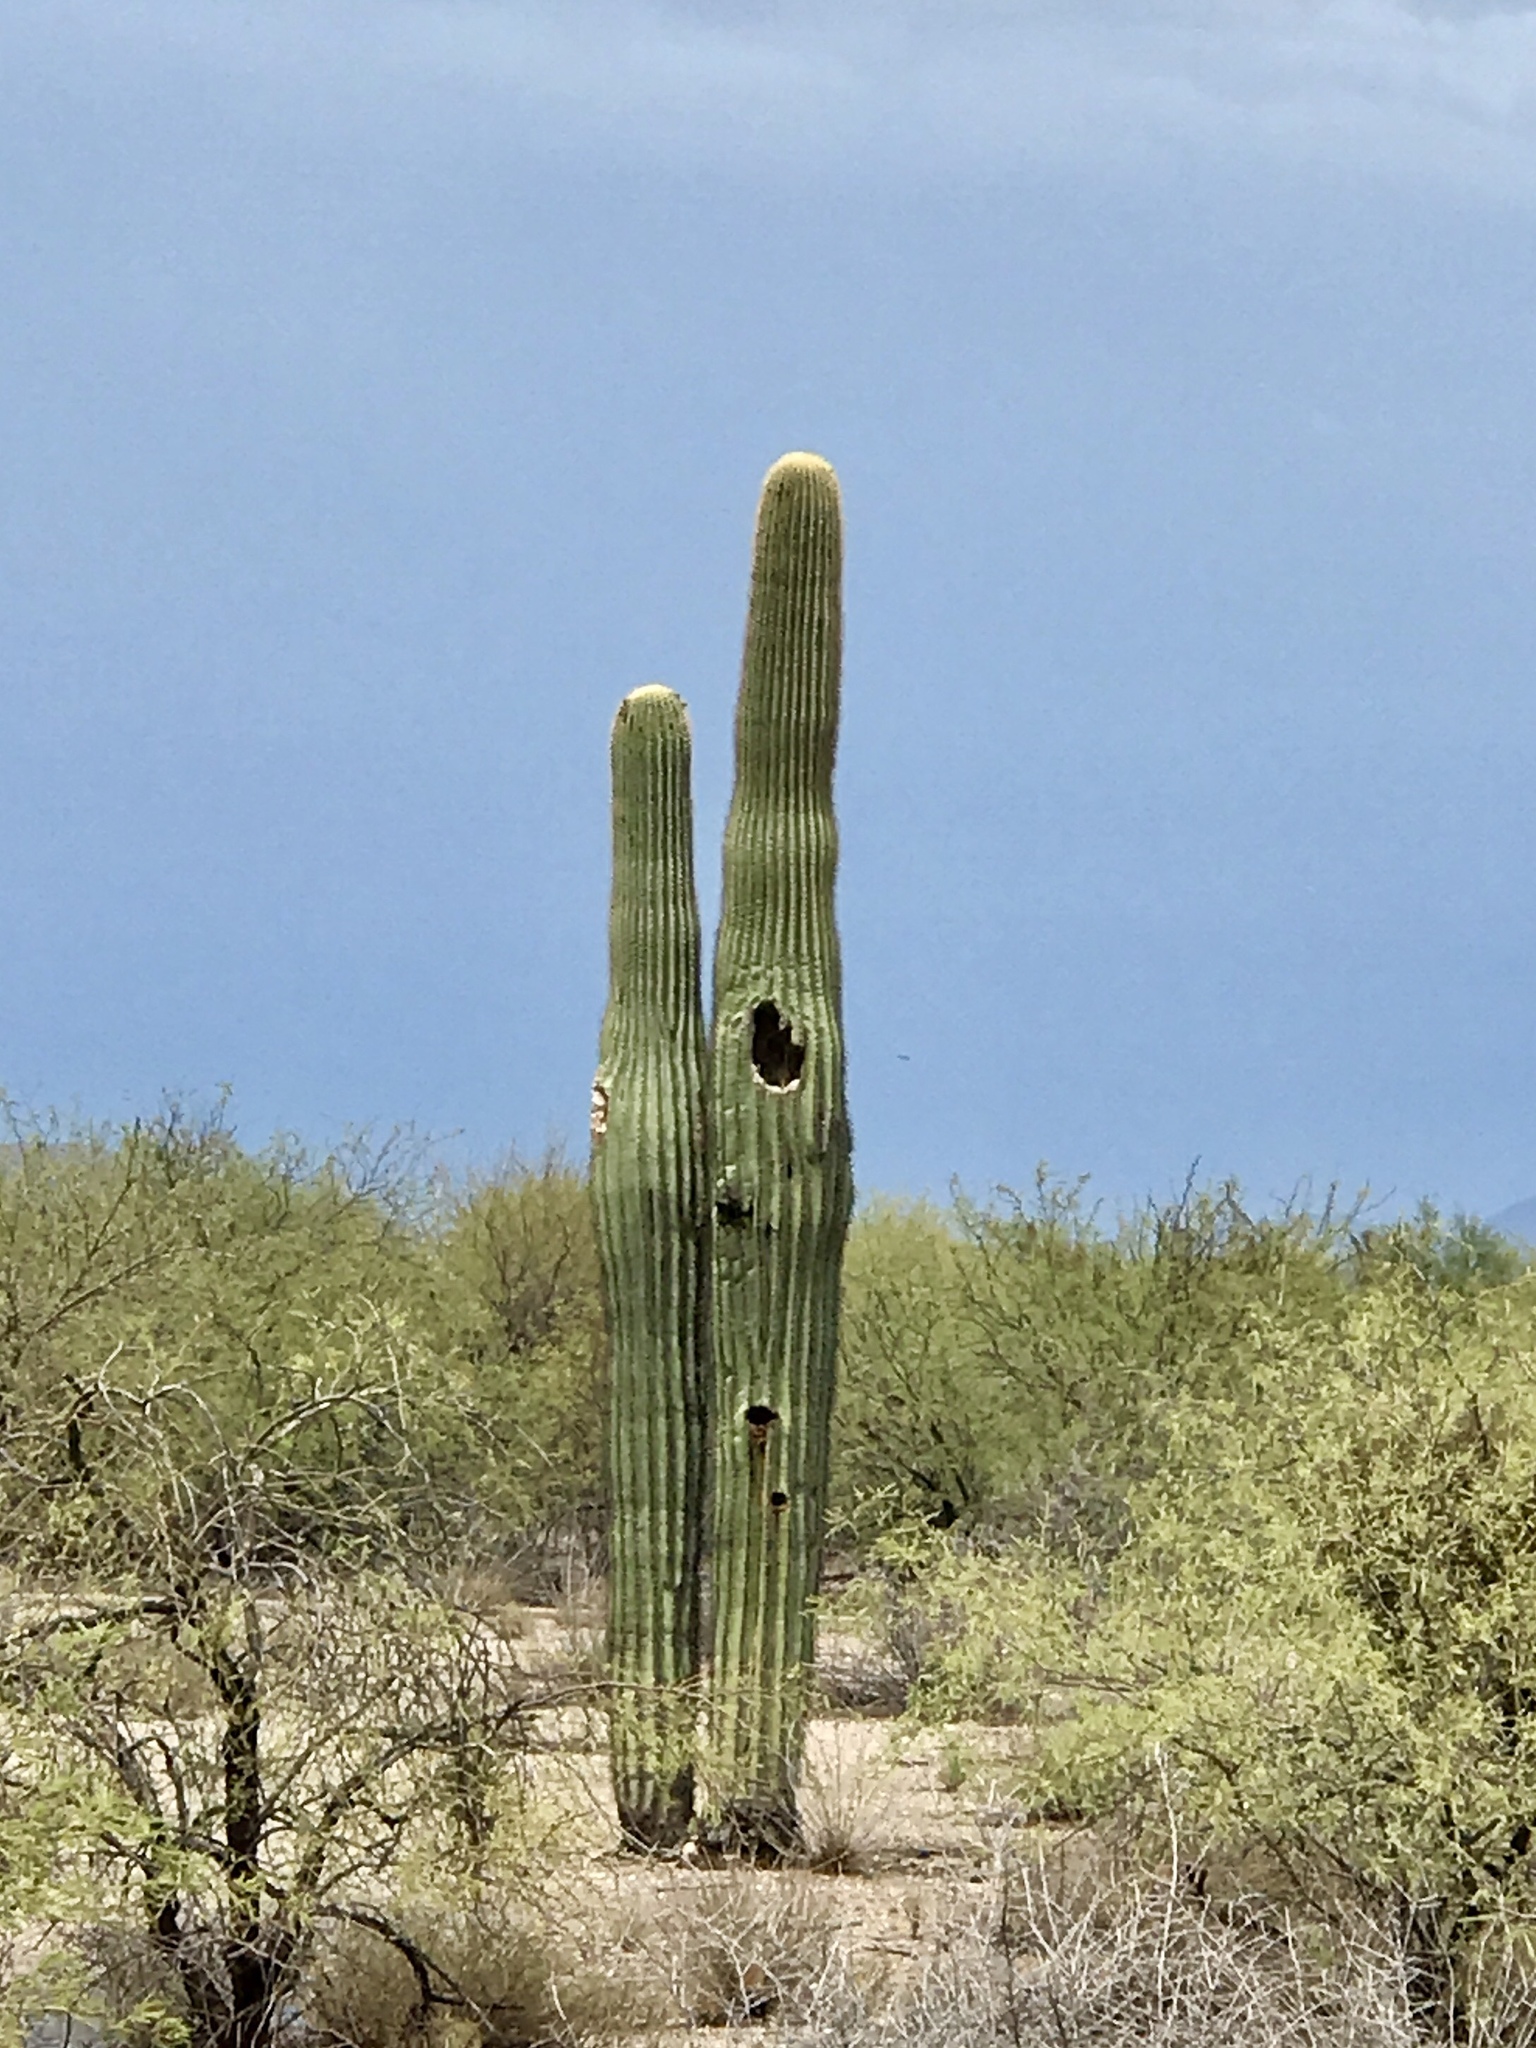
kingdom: Plantae
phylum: Tracheophyta
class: Magnoliopsida
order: Caryophyllales
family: Cactaceae
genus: Carnegiea
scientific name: Carnegiea gigantea
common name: Saguaro
